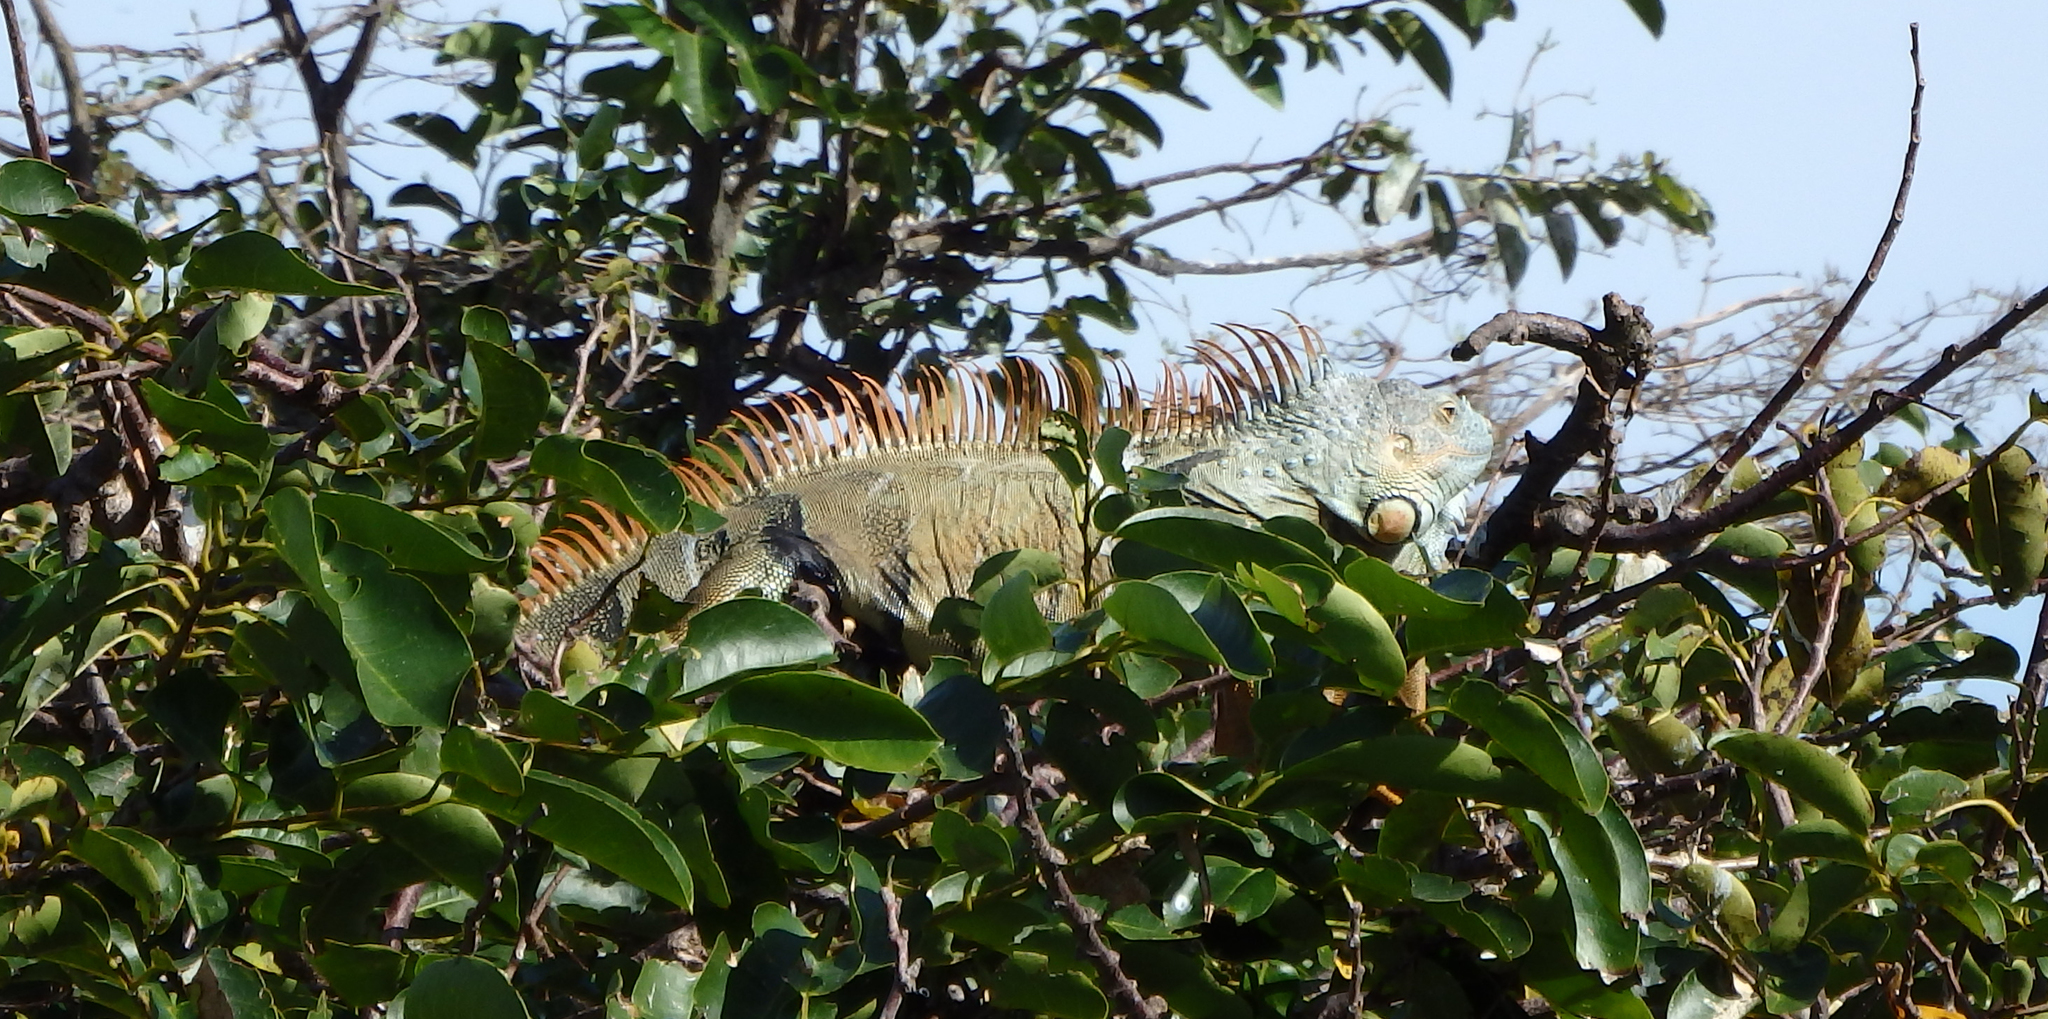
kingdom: Animalia
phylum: Chordata
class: Squamata
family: Iguanidae
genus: Iguana
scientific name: Iguana iguana
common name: Green iguana
